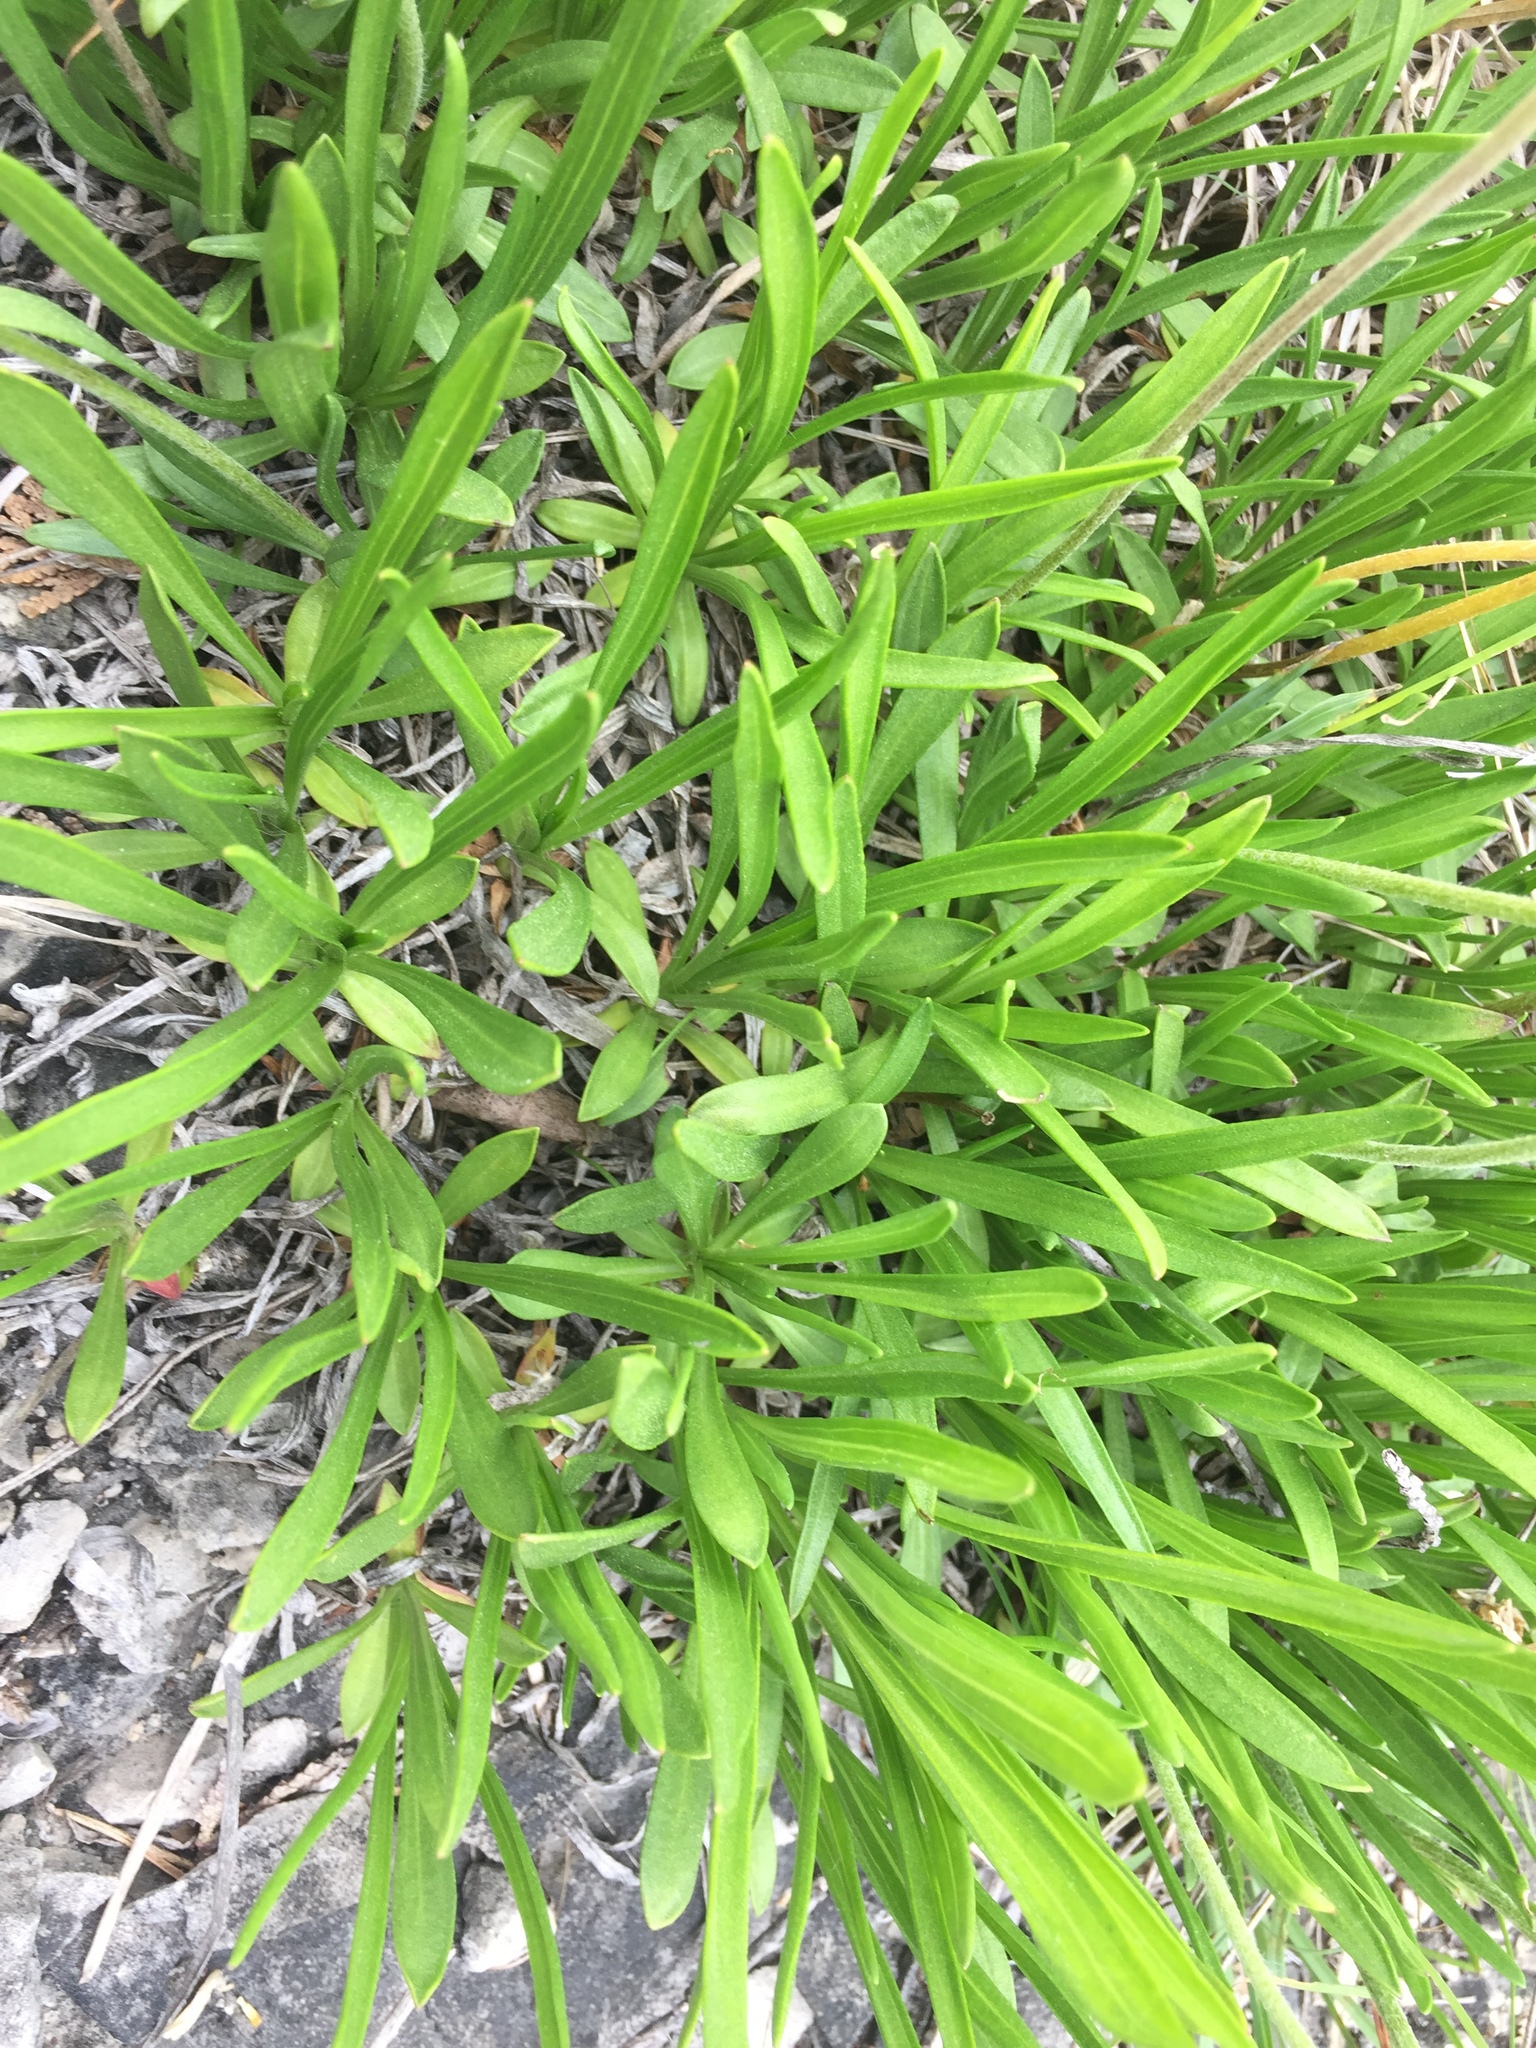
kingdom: Plantae
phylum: Tracheophyta
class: Magnoliopsida
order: Asterales
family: Asteraceae
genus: Tetraneuris
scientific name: Tetraneuris herbacea
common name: Lakeside daisy
